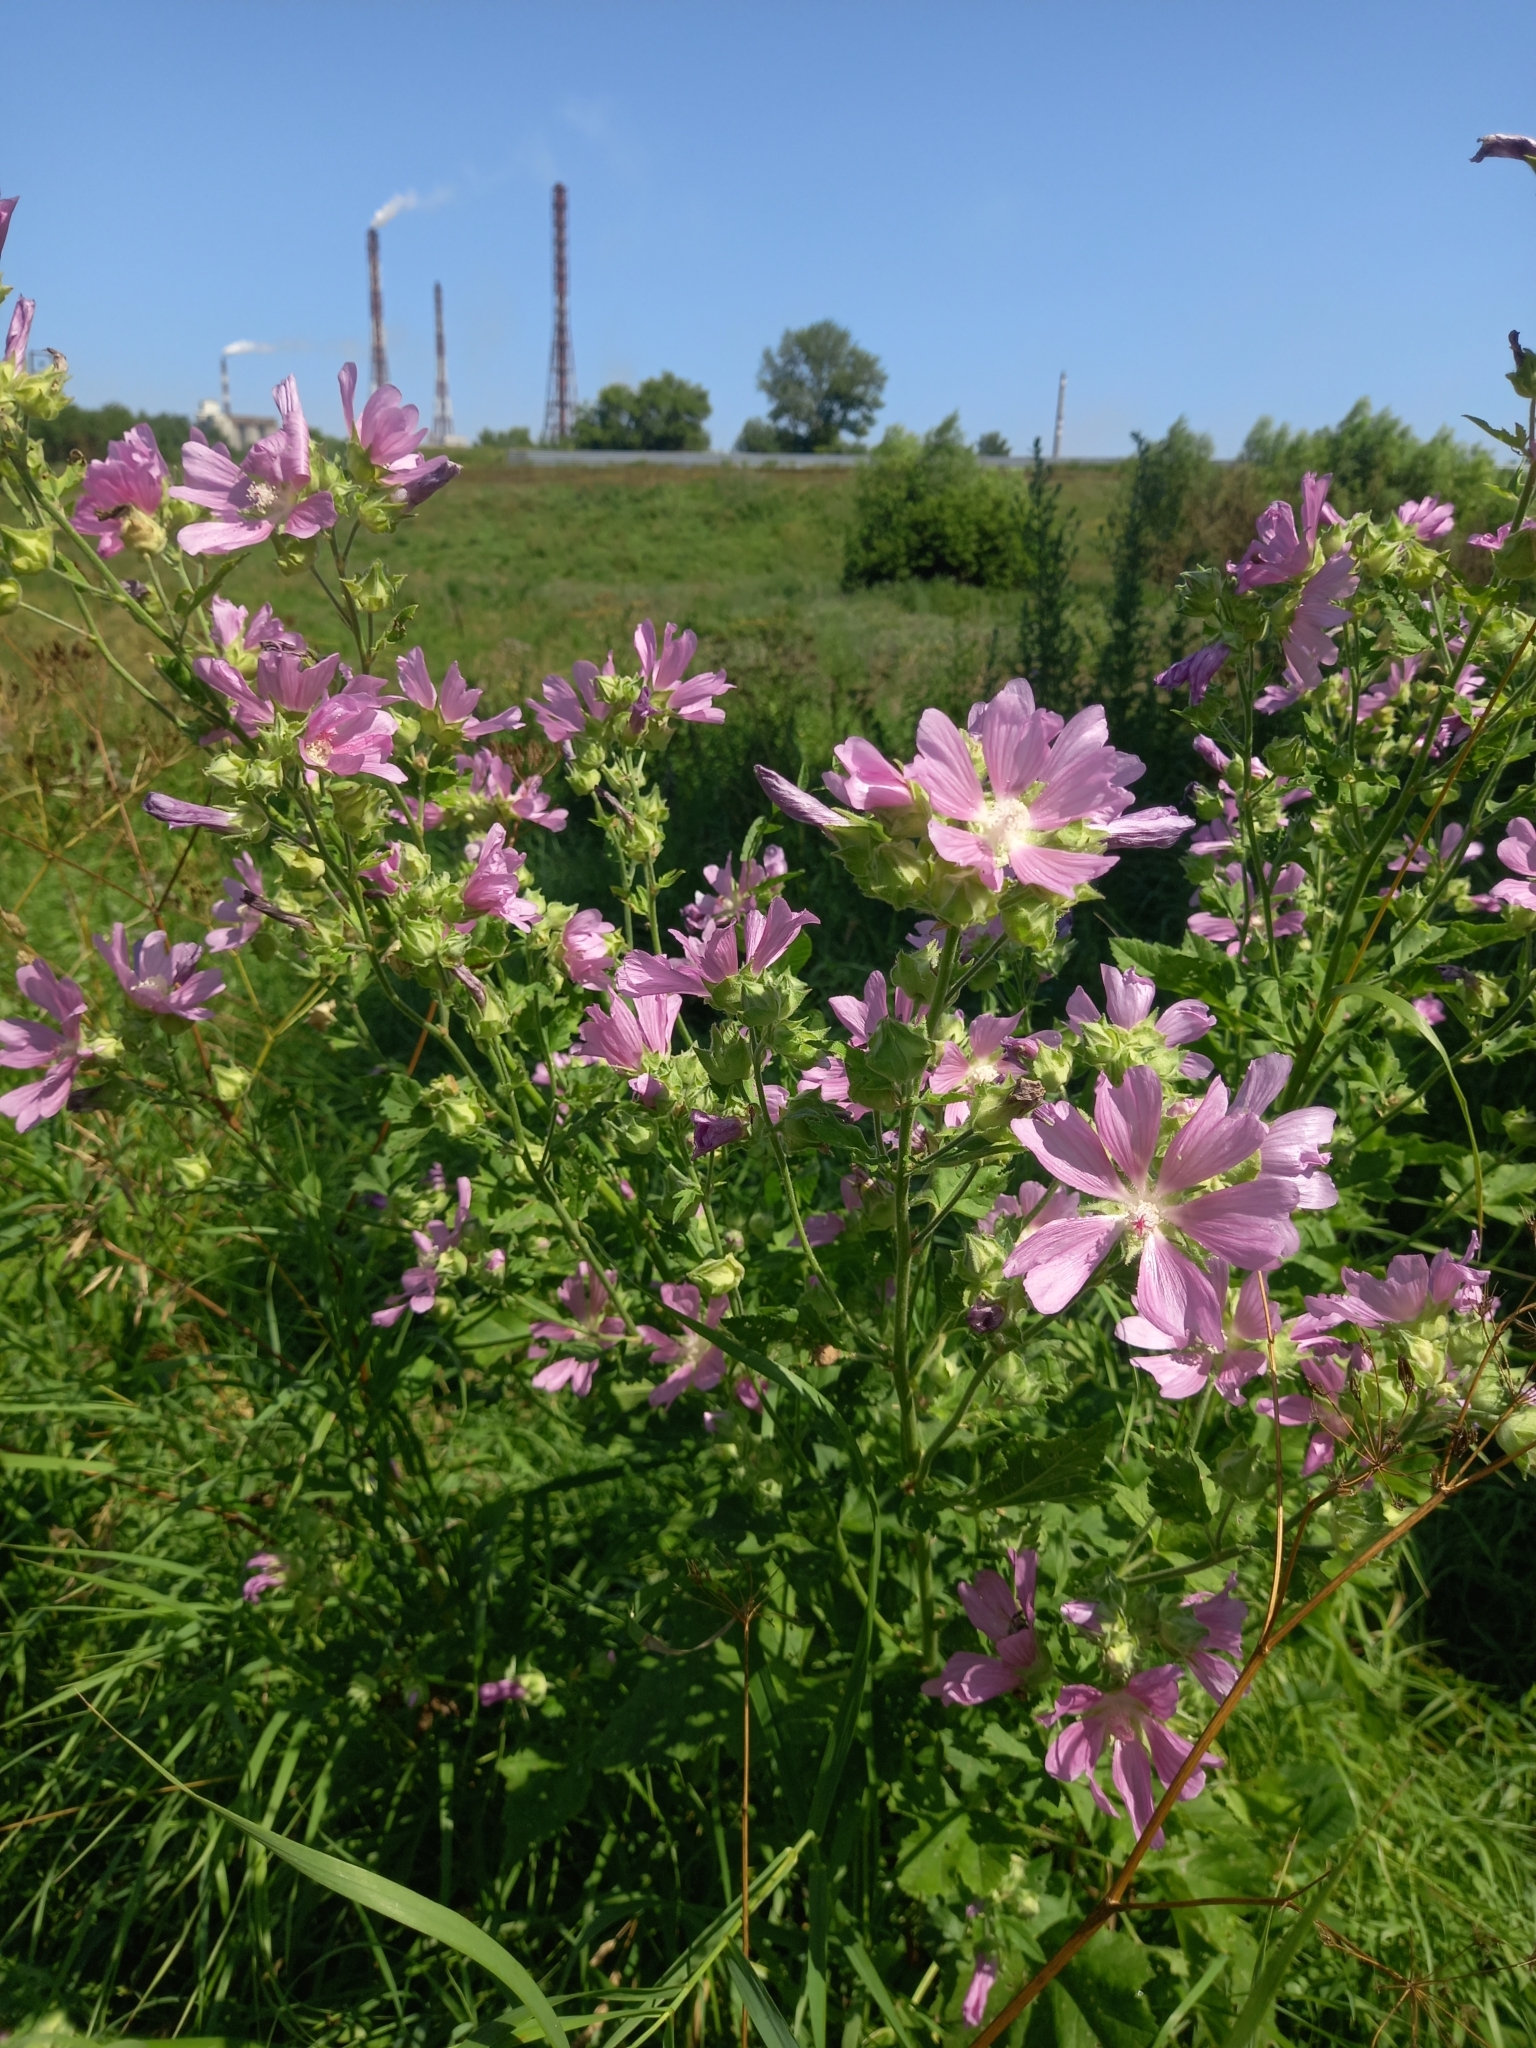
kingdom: Plantae
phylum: Tracheophyta
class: Magnoliopsida
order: Malvales
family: Malvaceae
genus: Malva
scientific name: Malva thuringiaca
